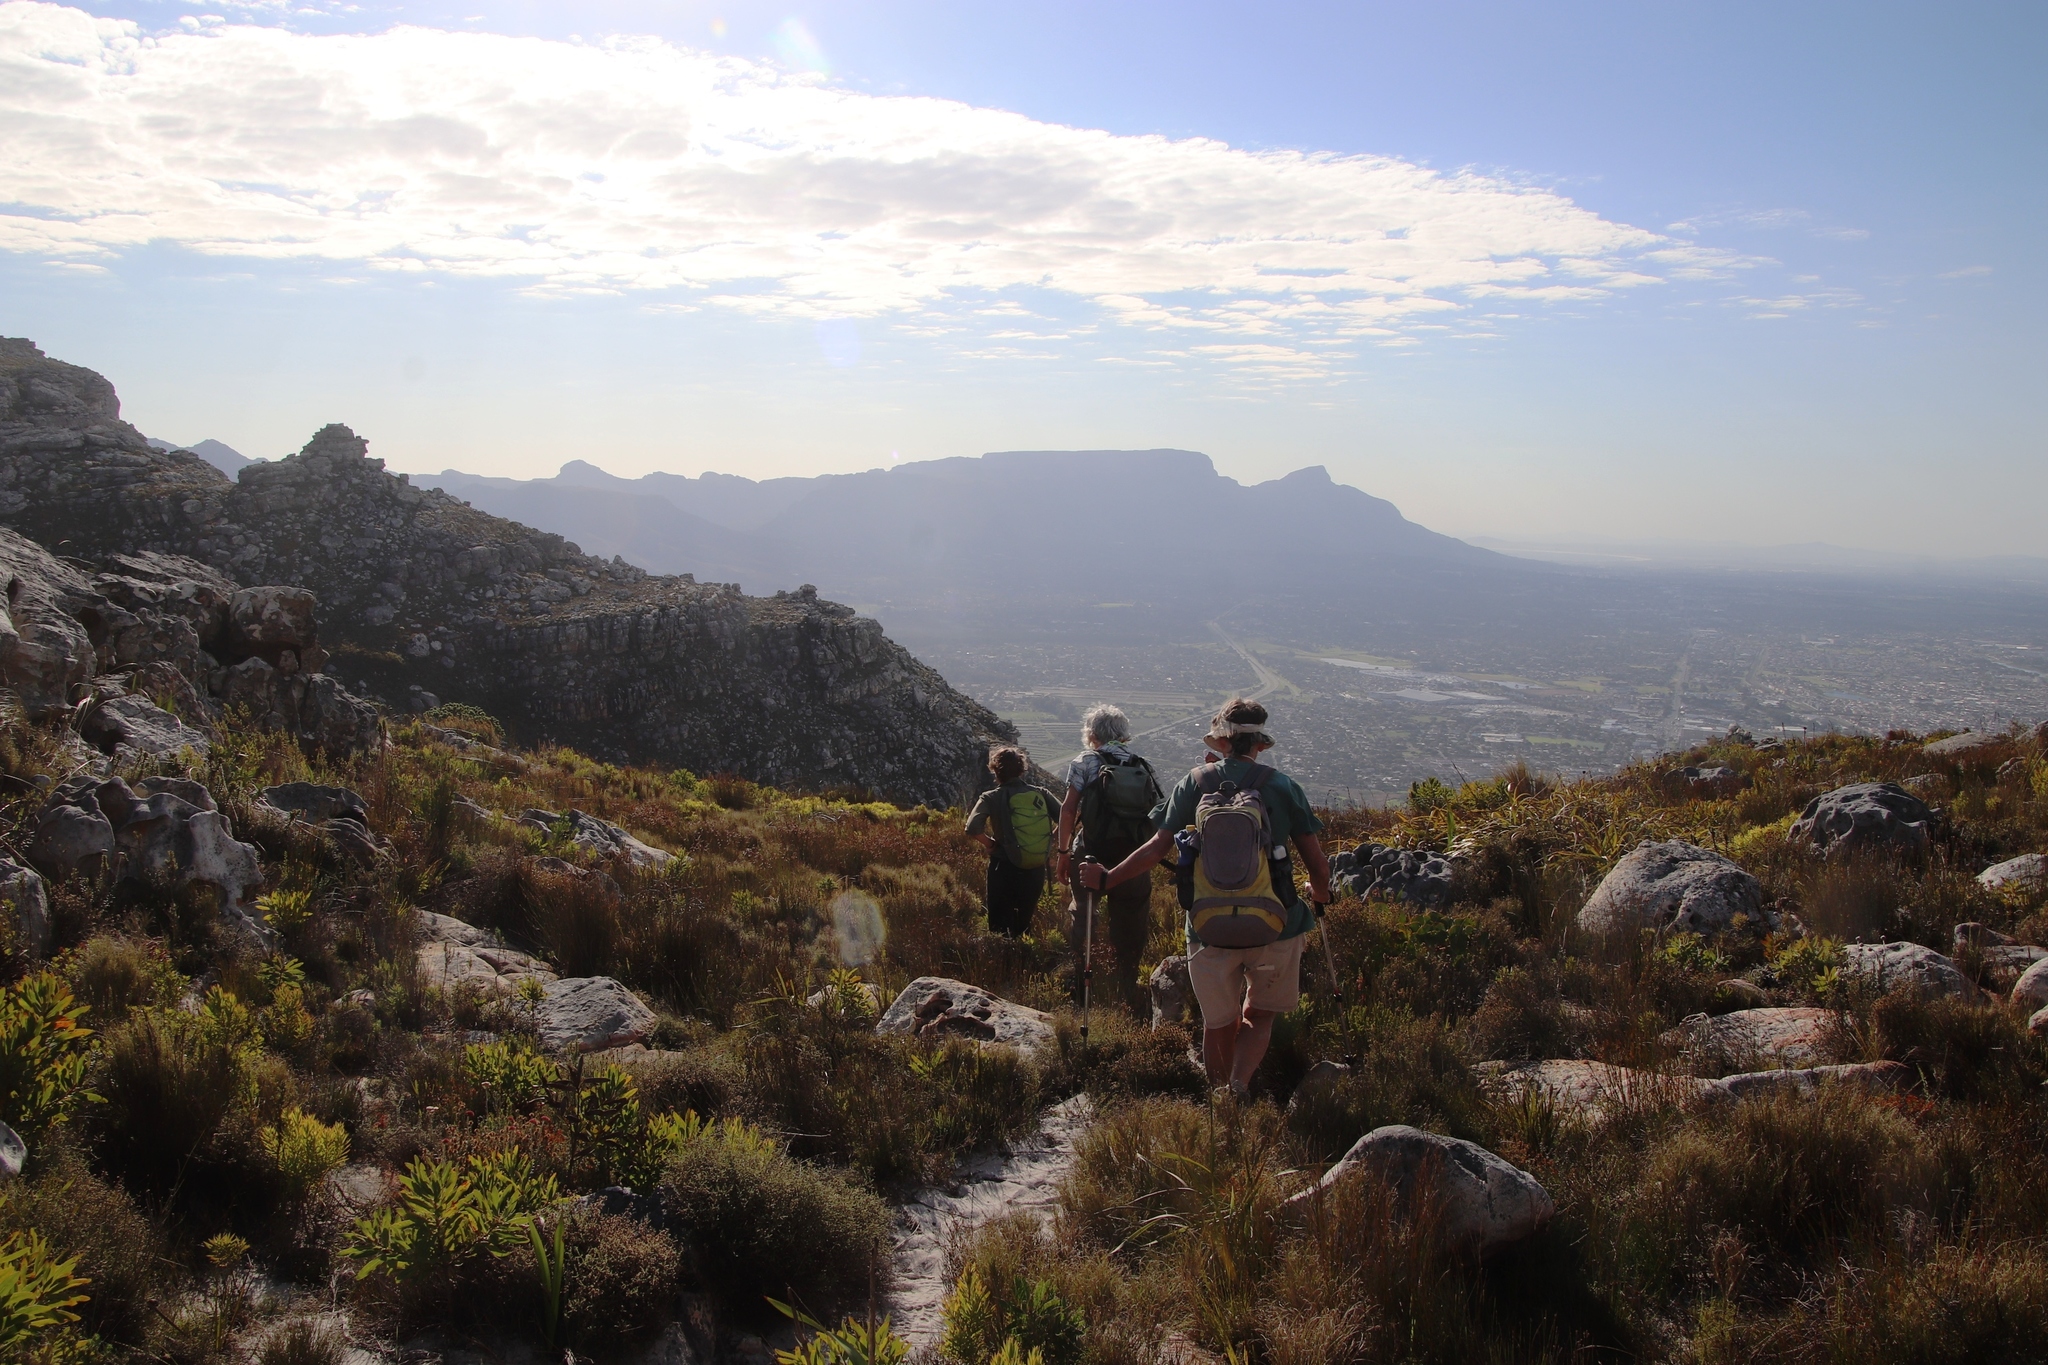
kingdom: Plantae
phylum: Tracheophyta
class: Magnoliopsida
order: Proteales
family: Proteaceae
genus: Protea
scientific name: Protea lepidocarpodendron
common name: Black-bearded protea
